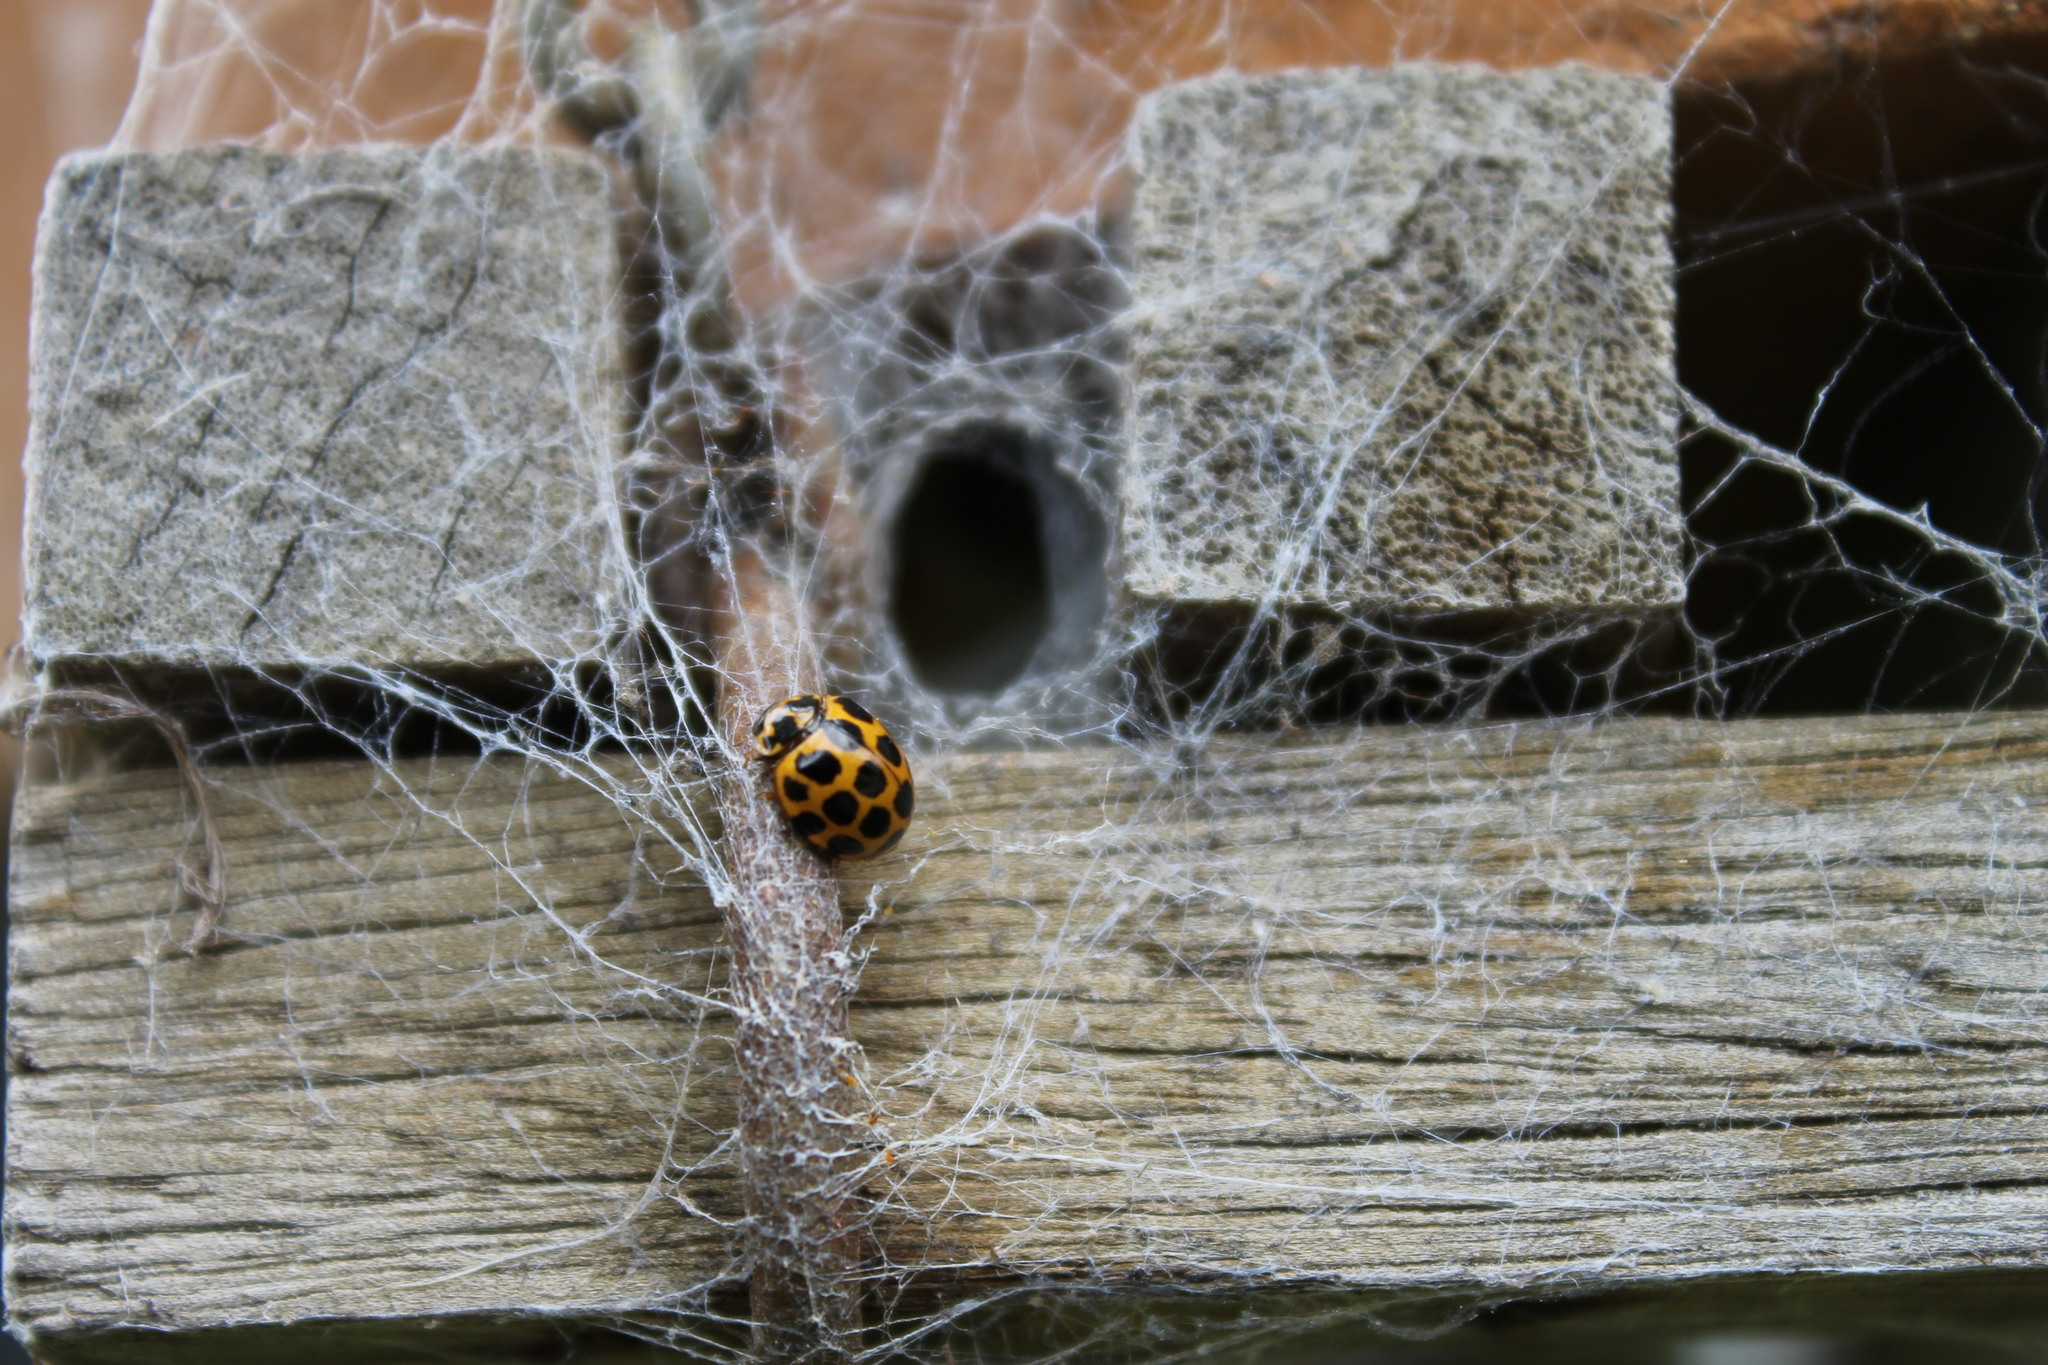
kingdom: Animalia
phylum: Arthropoda
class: Insecta
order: Coleoptera
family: Coccinellidae
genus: Harmonia
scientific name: Harmonia conformis
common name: Common spotted ladybird beetle
